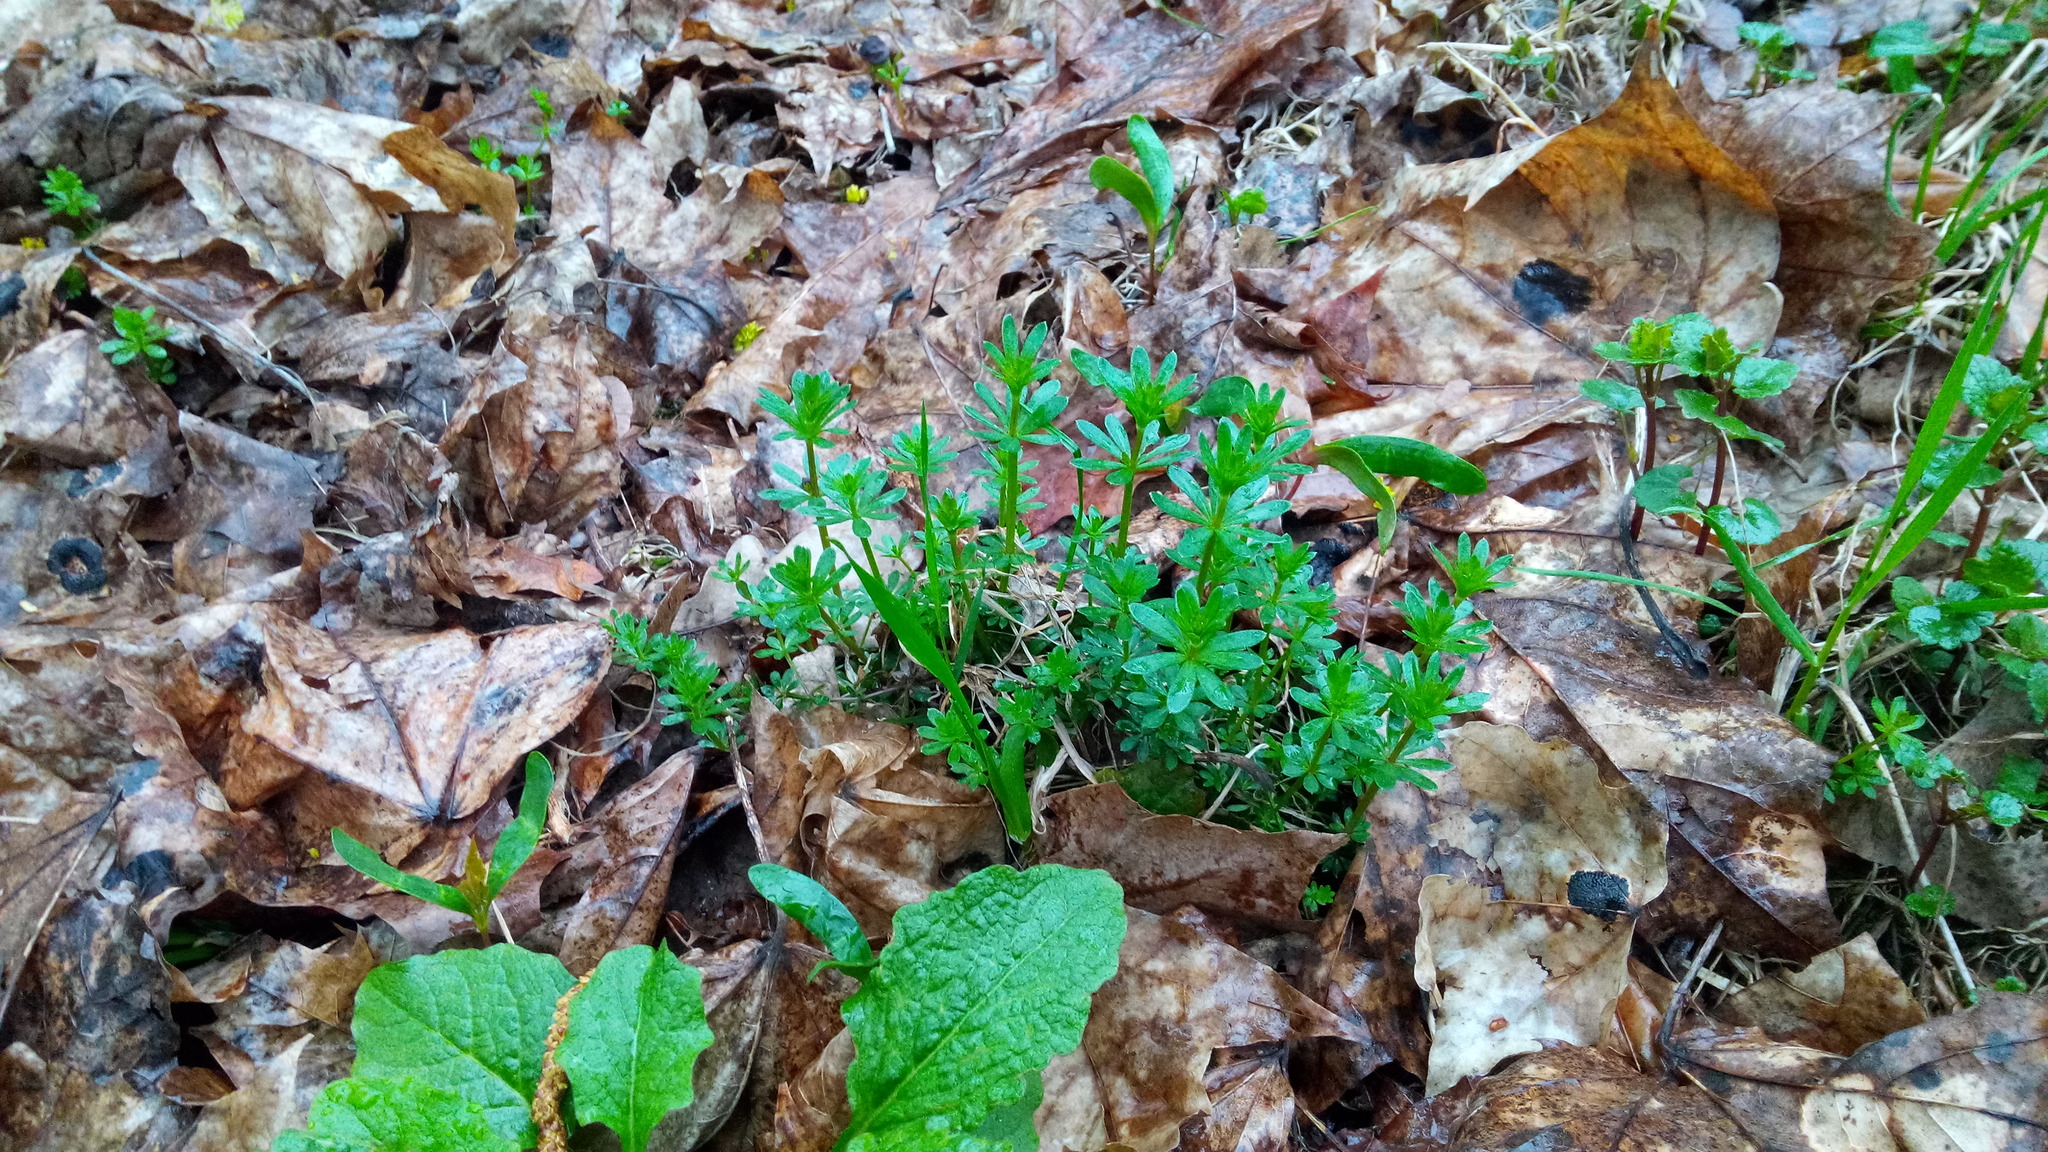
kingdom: Plantae
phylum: Tracheophyta
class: Magnoliopsida
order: Gentianales
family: Rubiaceae
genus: Galium
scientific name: Galium mollugo
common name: Hedge bedstraw
